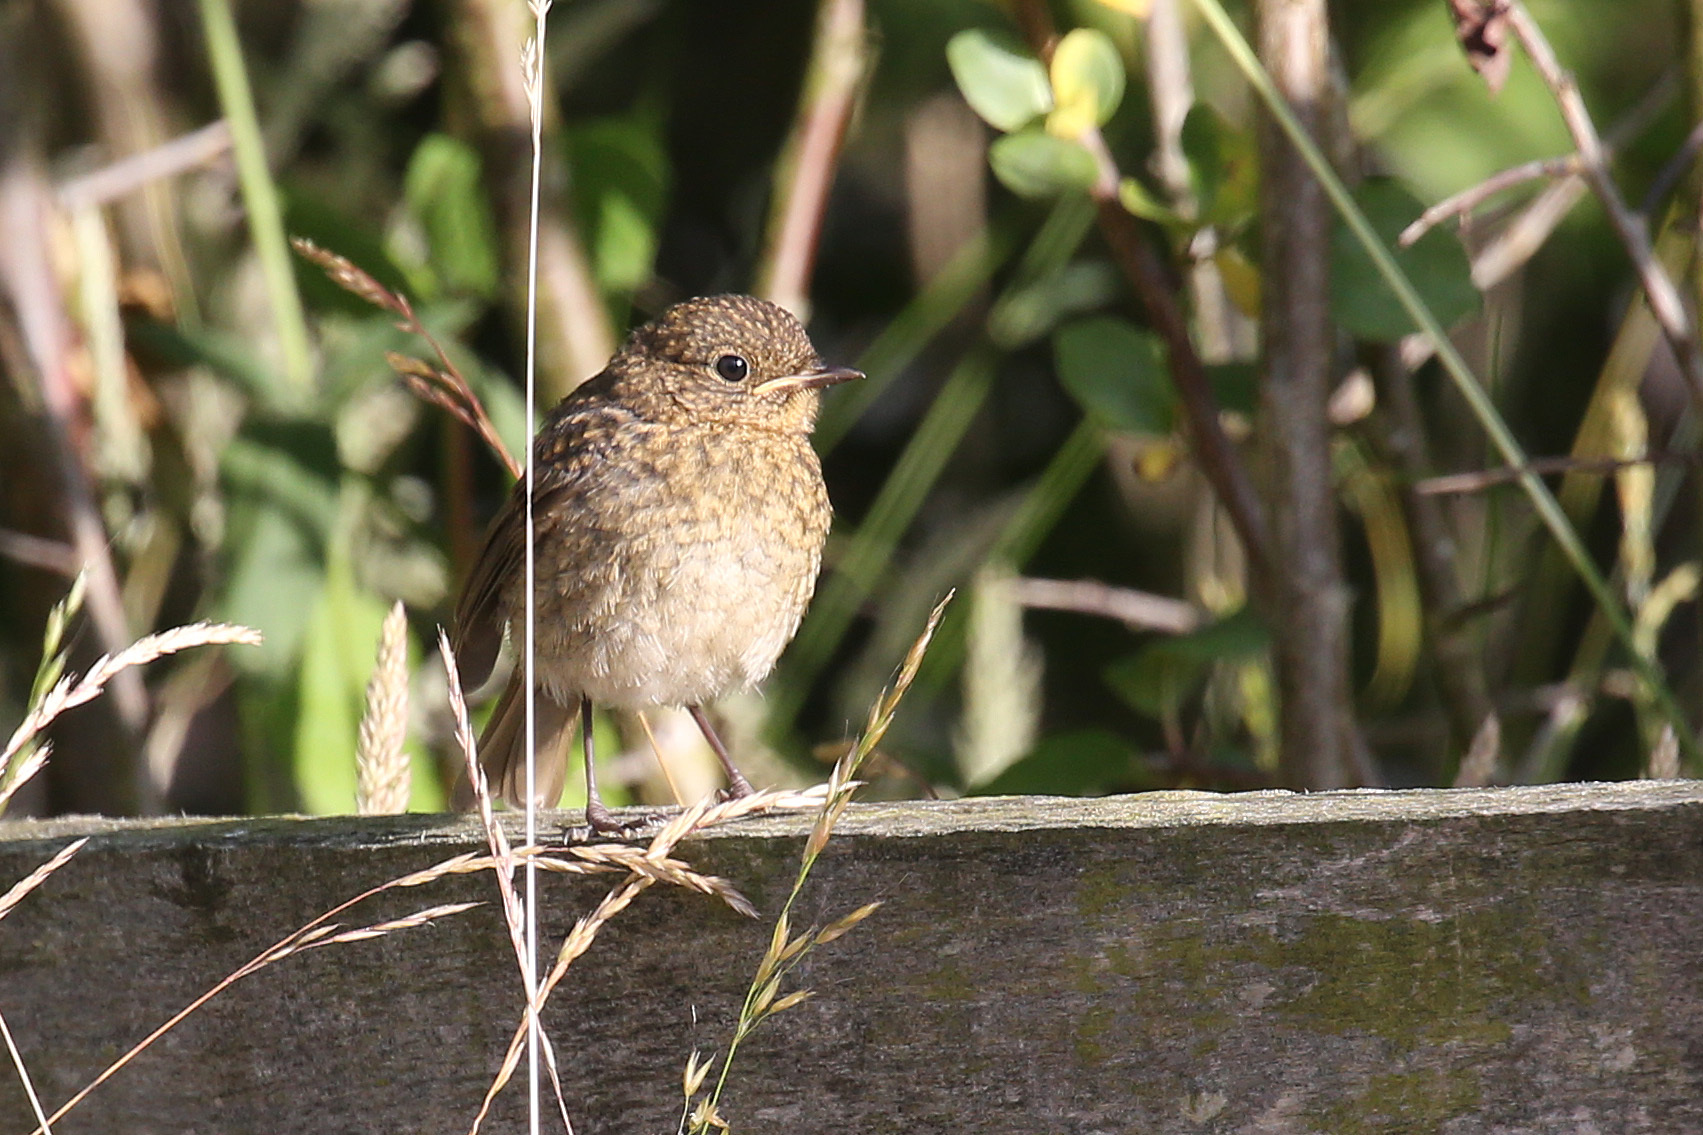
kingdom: Animalia
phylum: Chordata
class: Aves
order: Passeriformes
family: Muscicapidae
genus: Erithacus
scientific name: Erithacus rubecula
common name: European robin
